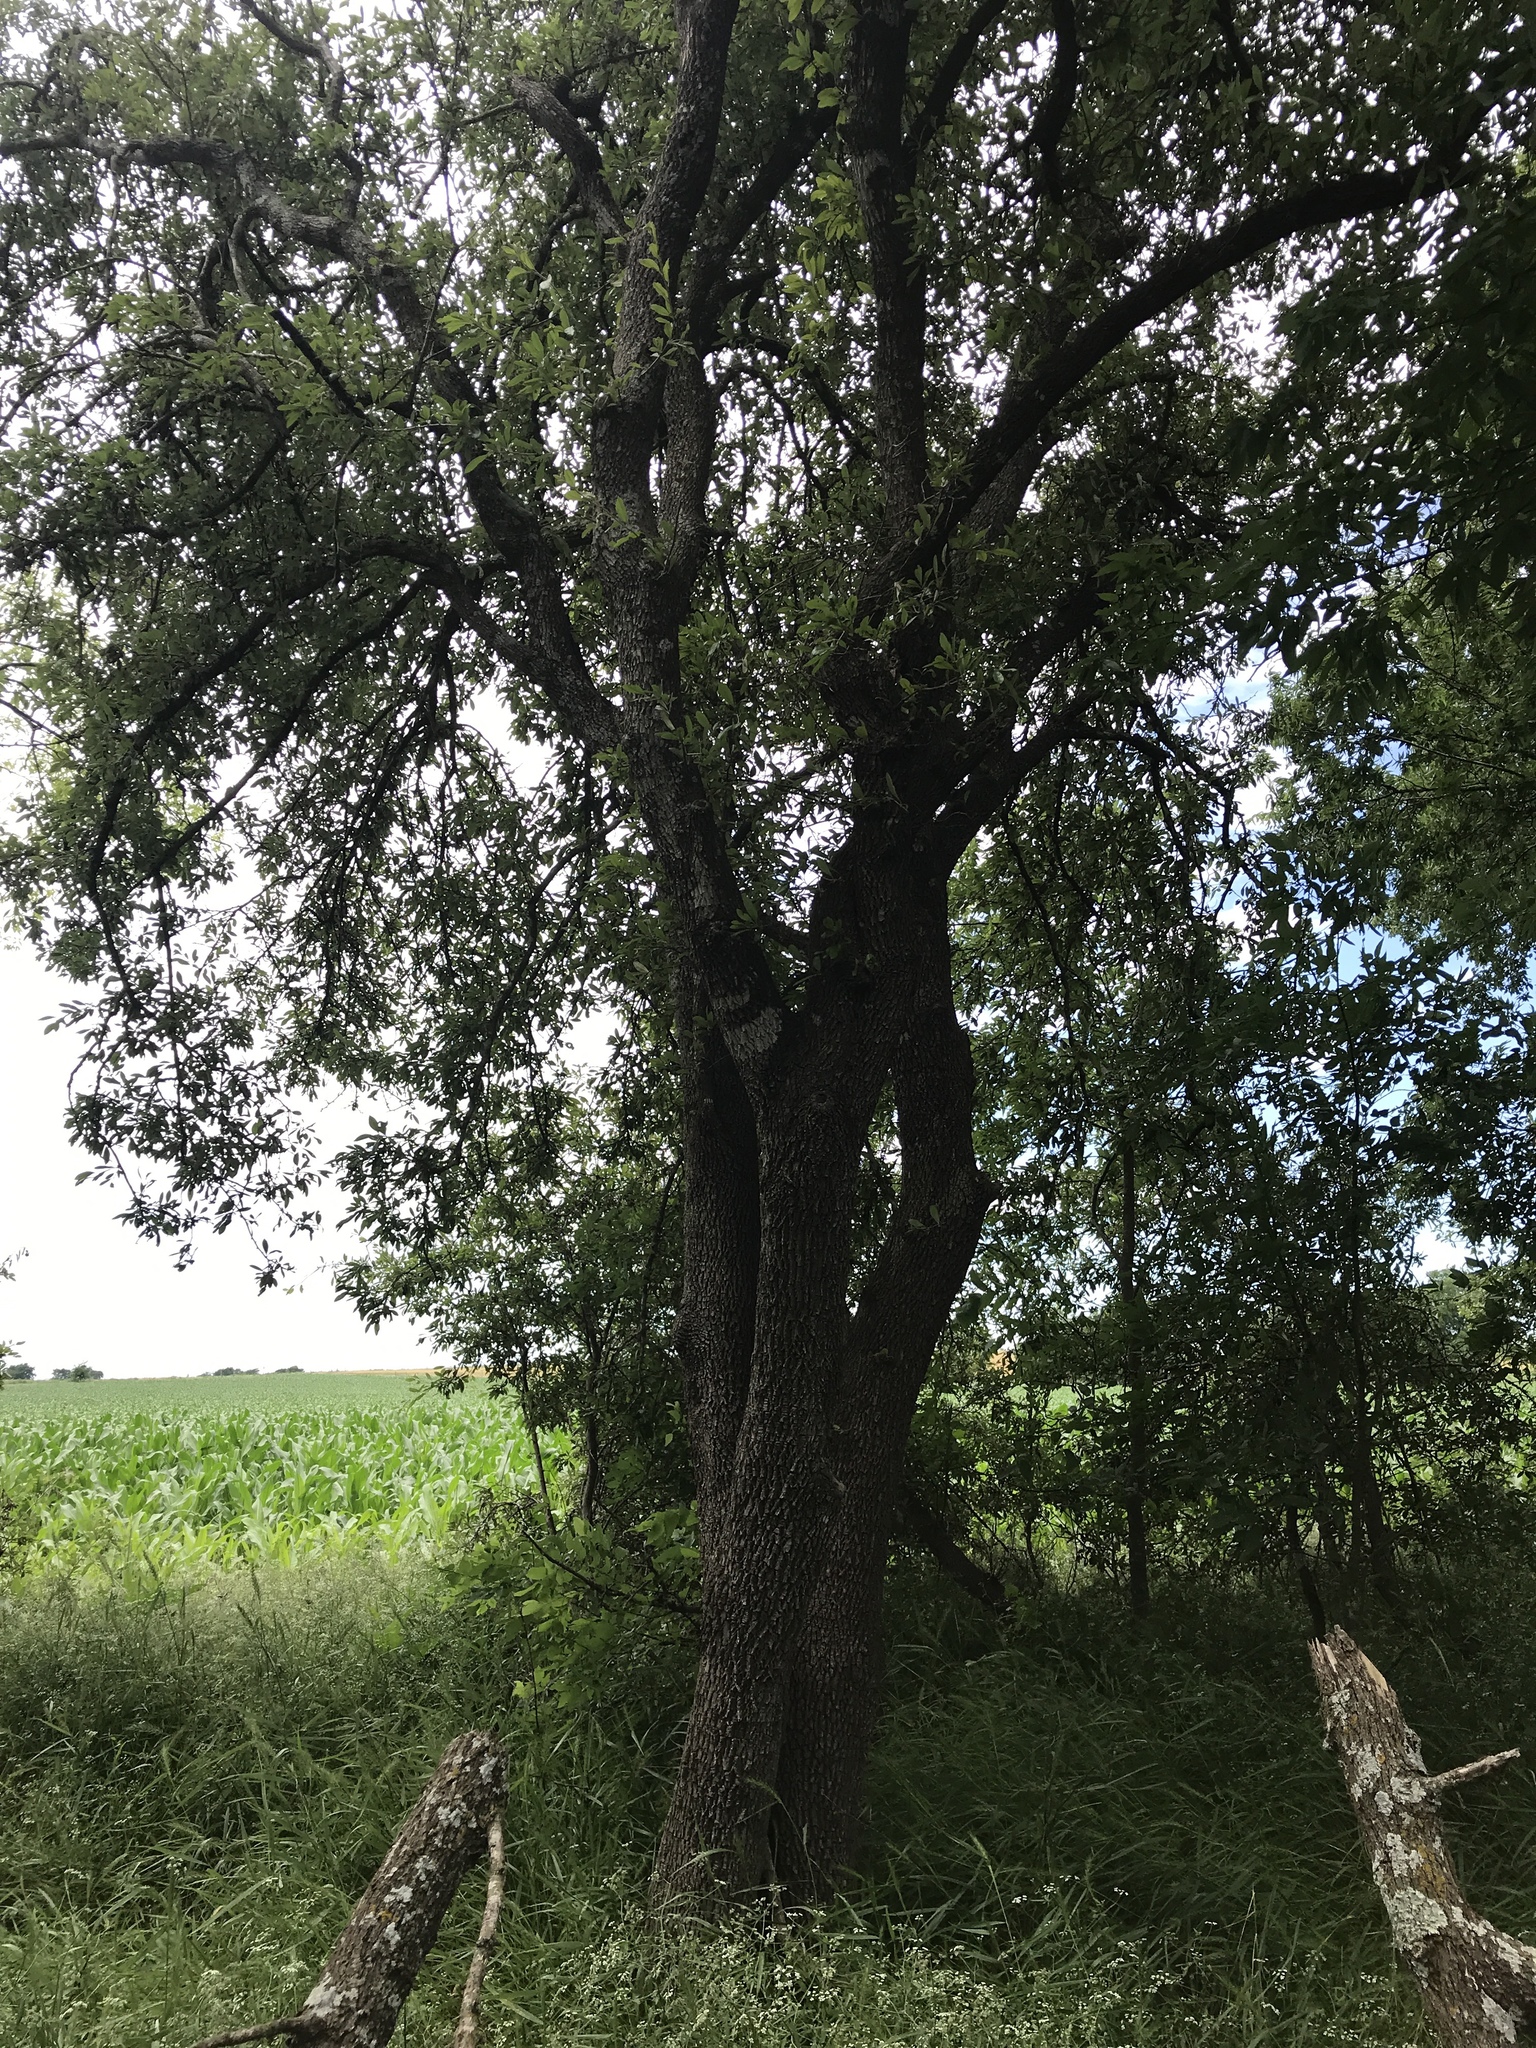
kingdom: Plantae
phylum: Tracheophyta
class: Magnoliopsida
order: Ericales
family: Sapotaceae
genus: Sideroxylon
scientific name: Sideroxylon lanuginosum
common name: Chittamwood
